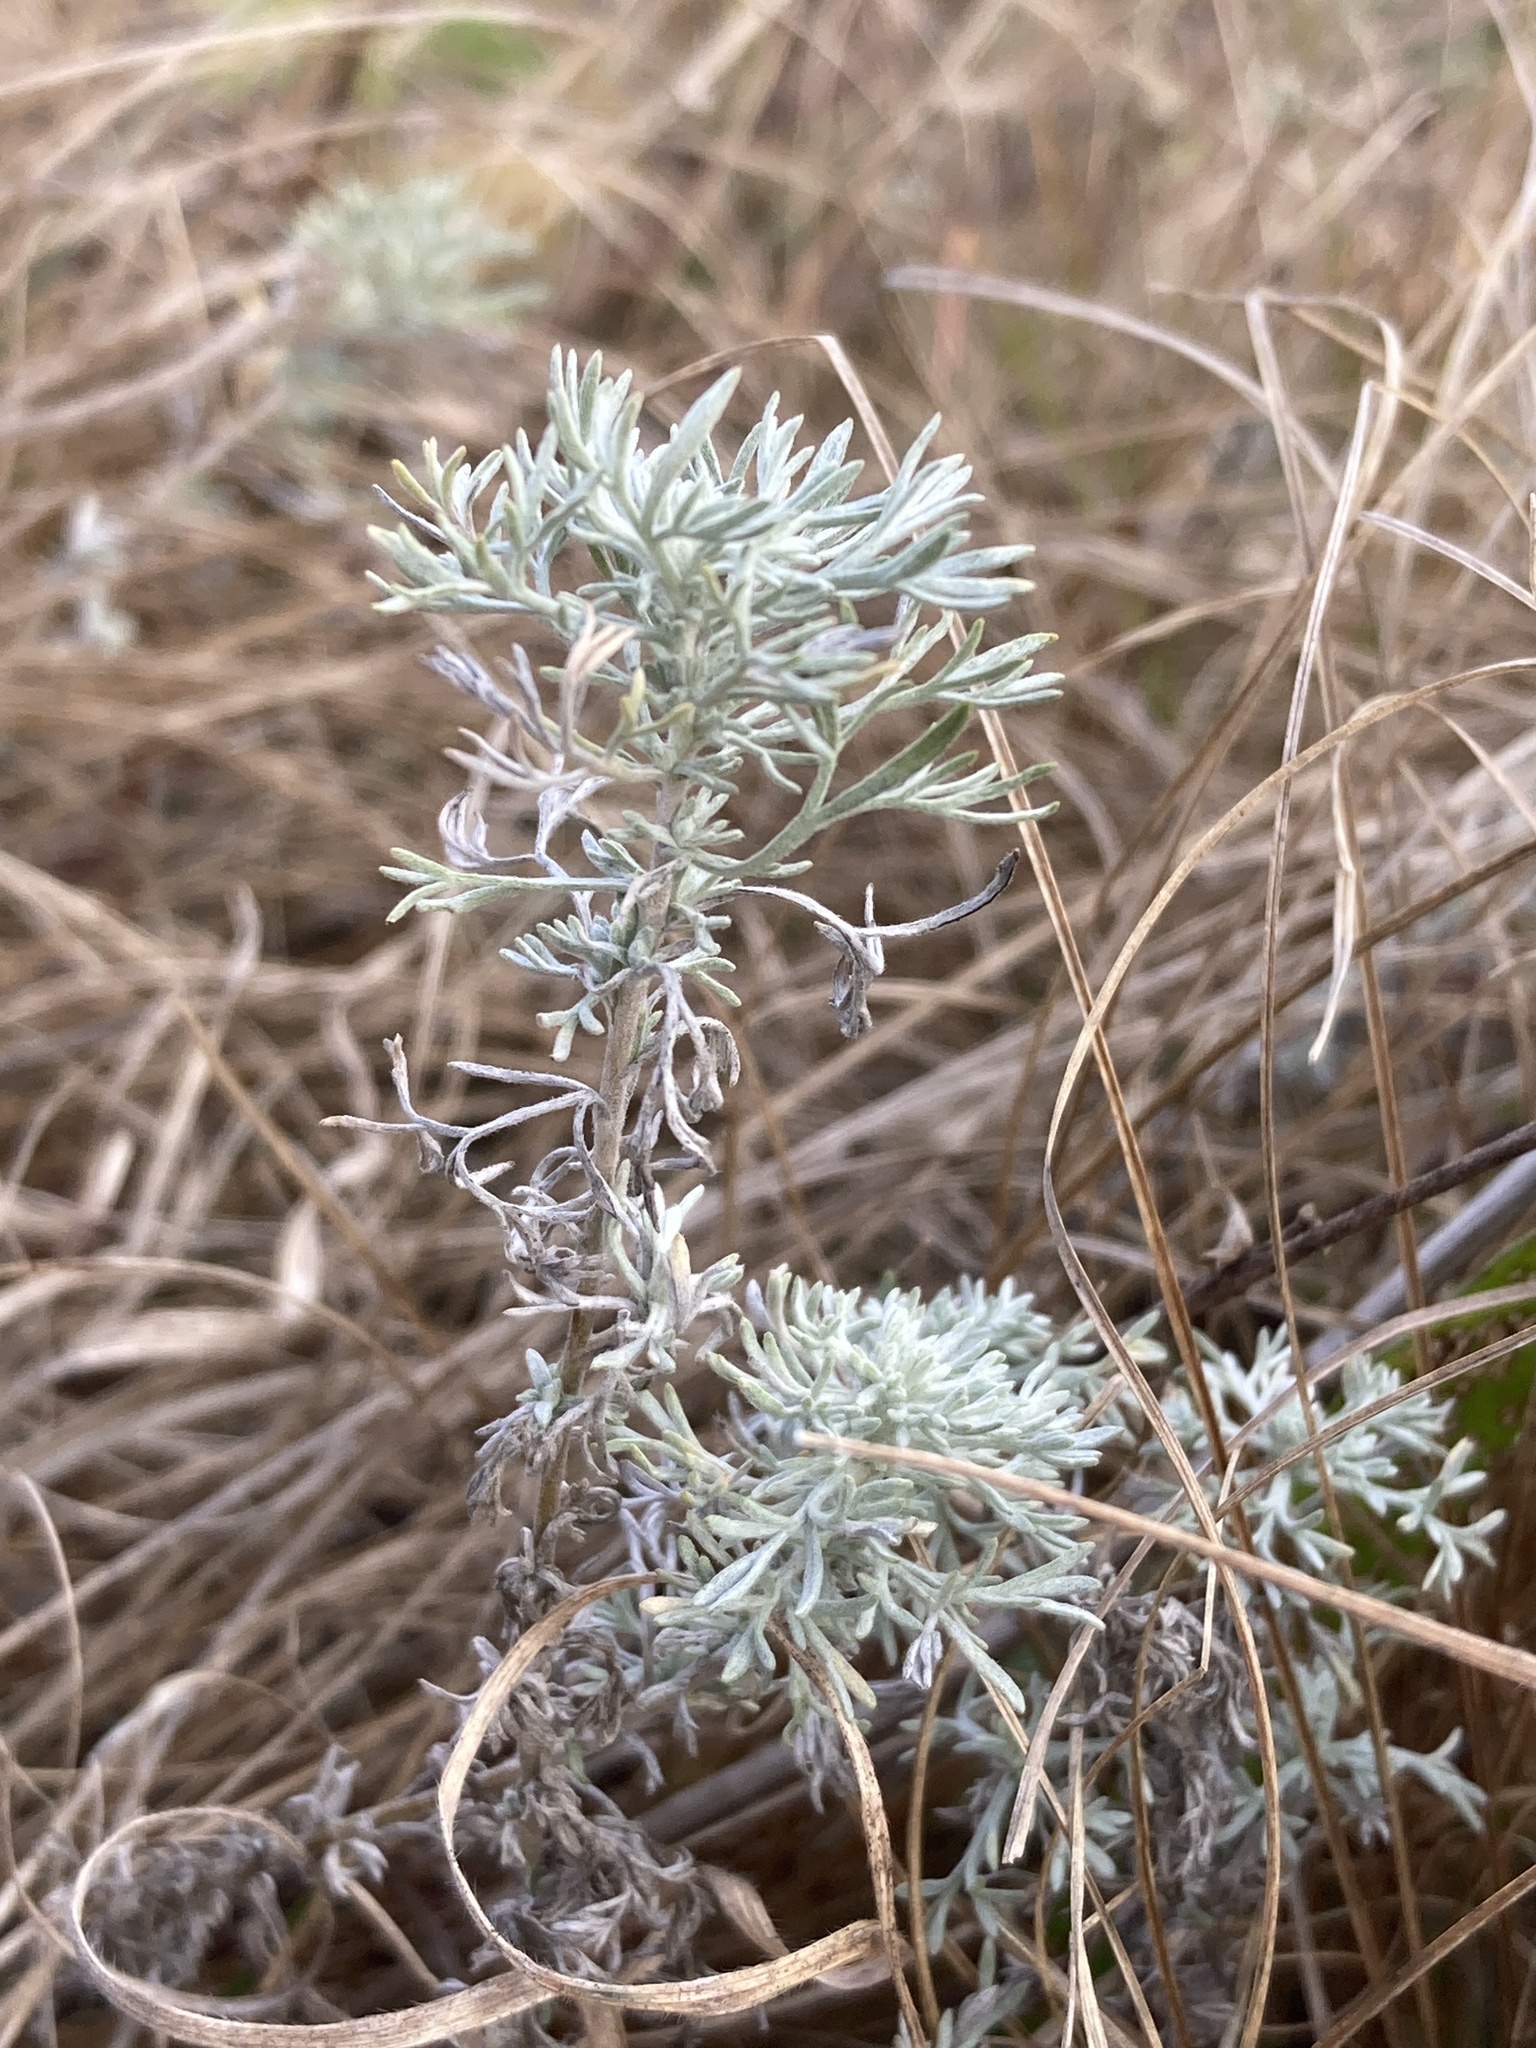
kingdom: Plantae
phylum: Tracheophyta
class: Magnoliopsida
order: Asterales
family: Asteraceae
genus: Artemisia
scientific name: Artemisia austriaca
